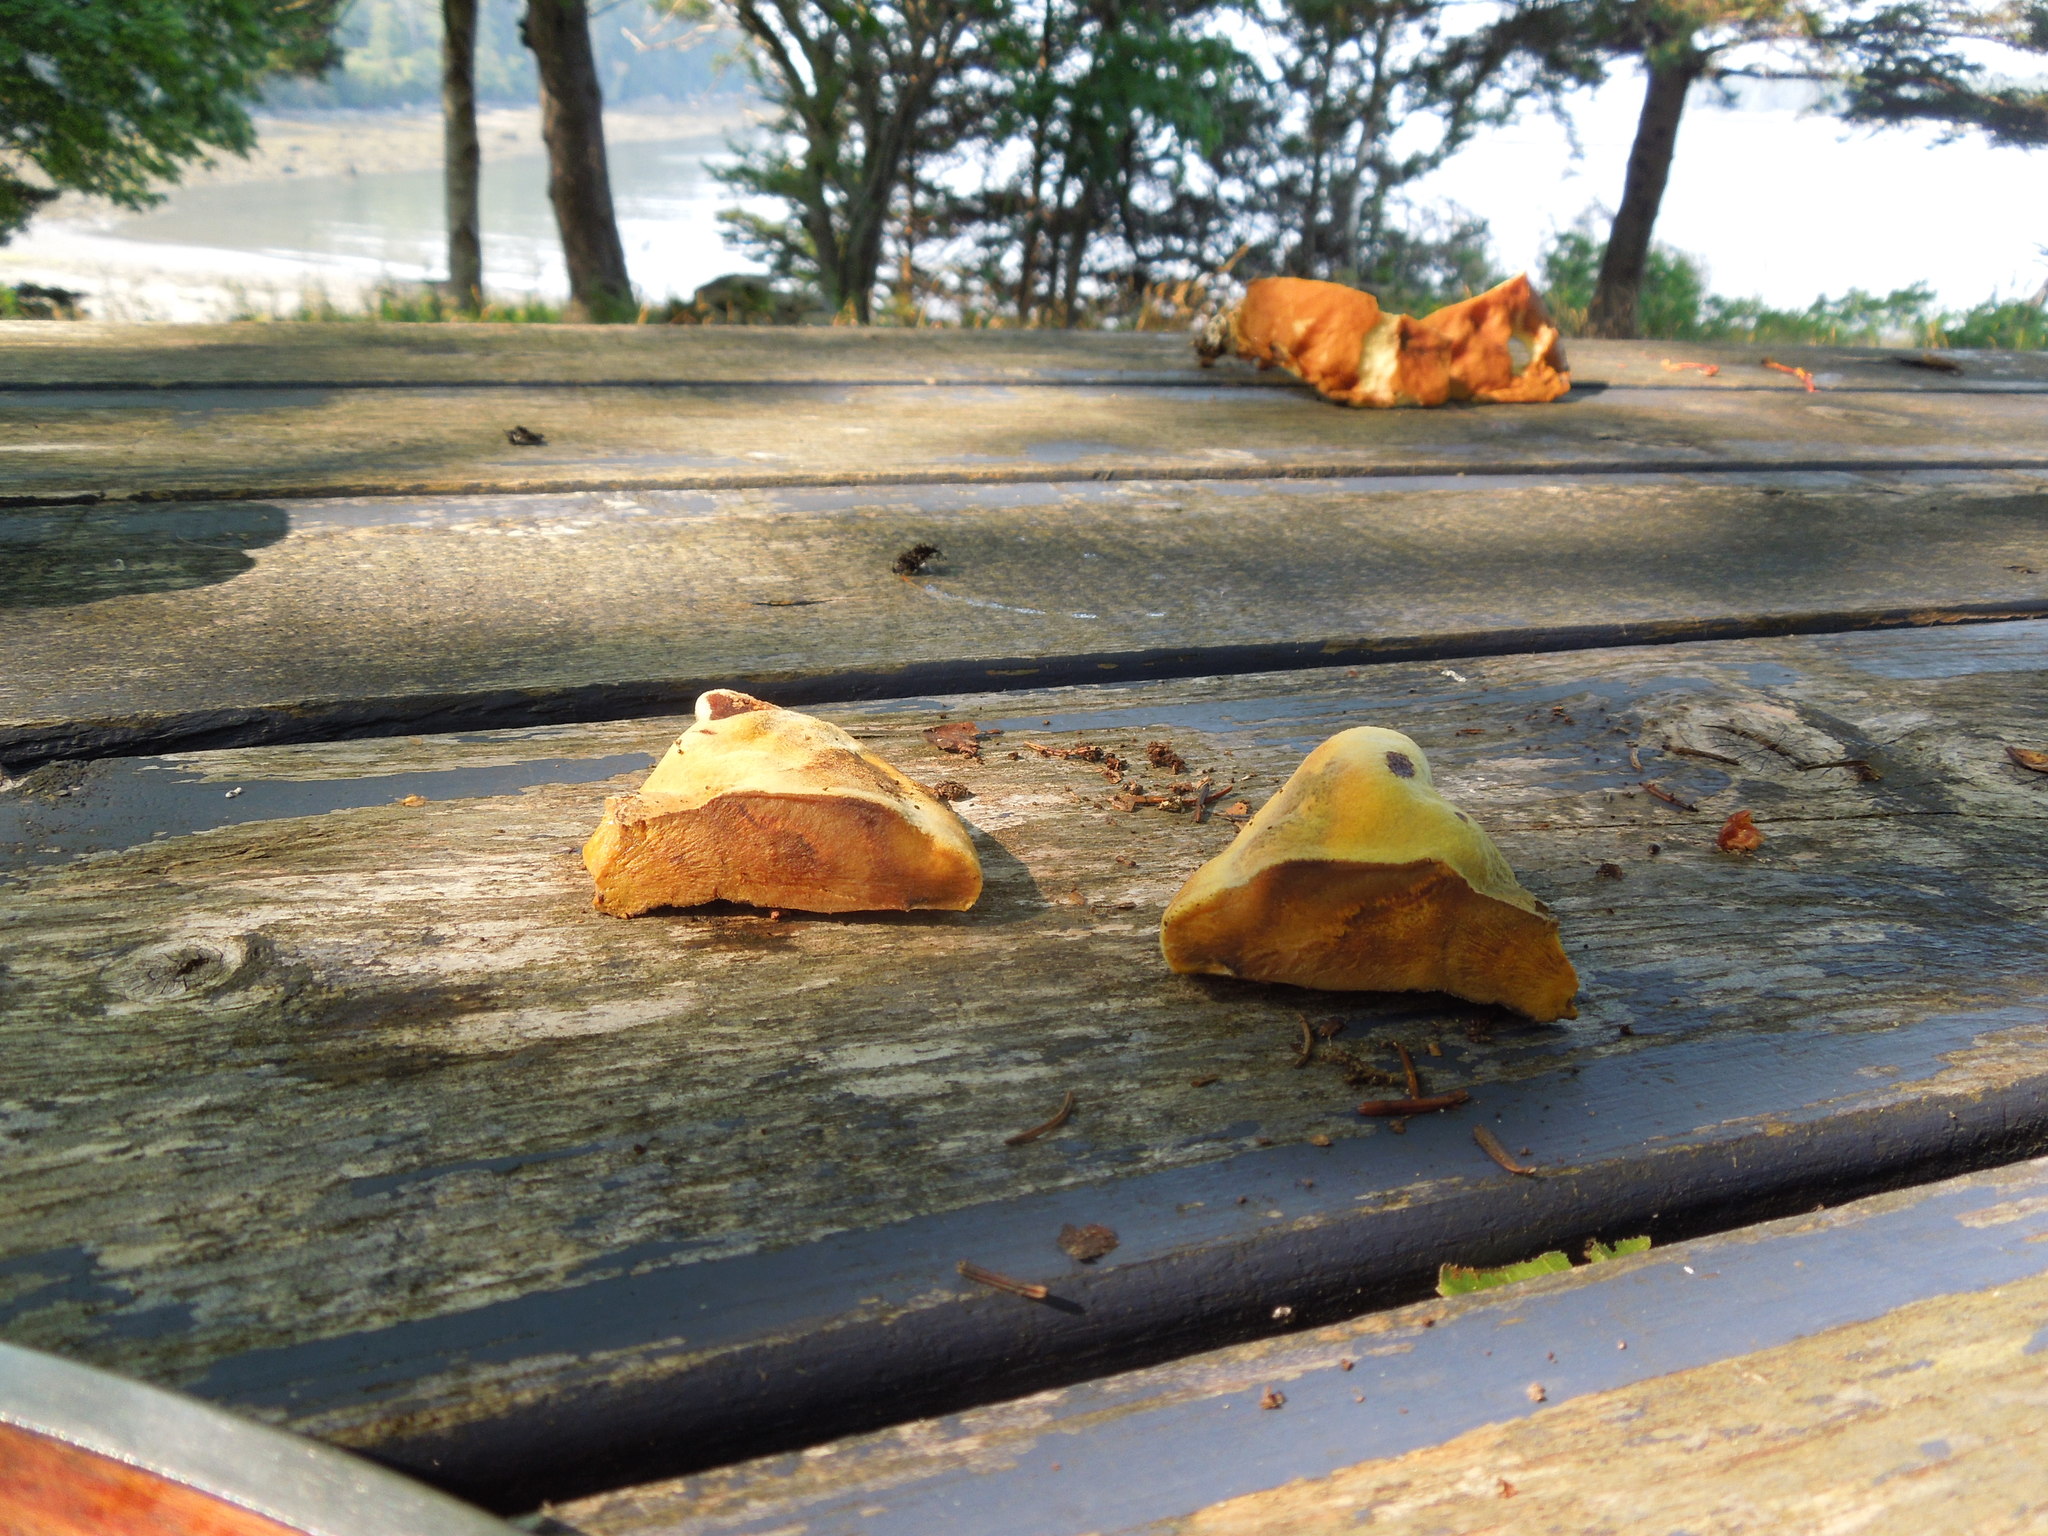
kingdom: Fungi
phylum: Basidiomycota
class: Agaricomycetes
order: Polyporales
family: Laetiporaceae
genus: Phaeolus
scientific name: Phaeolus schweinitzii
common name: Dyer's mazegill
